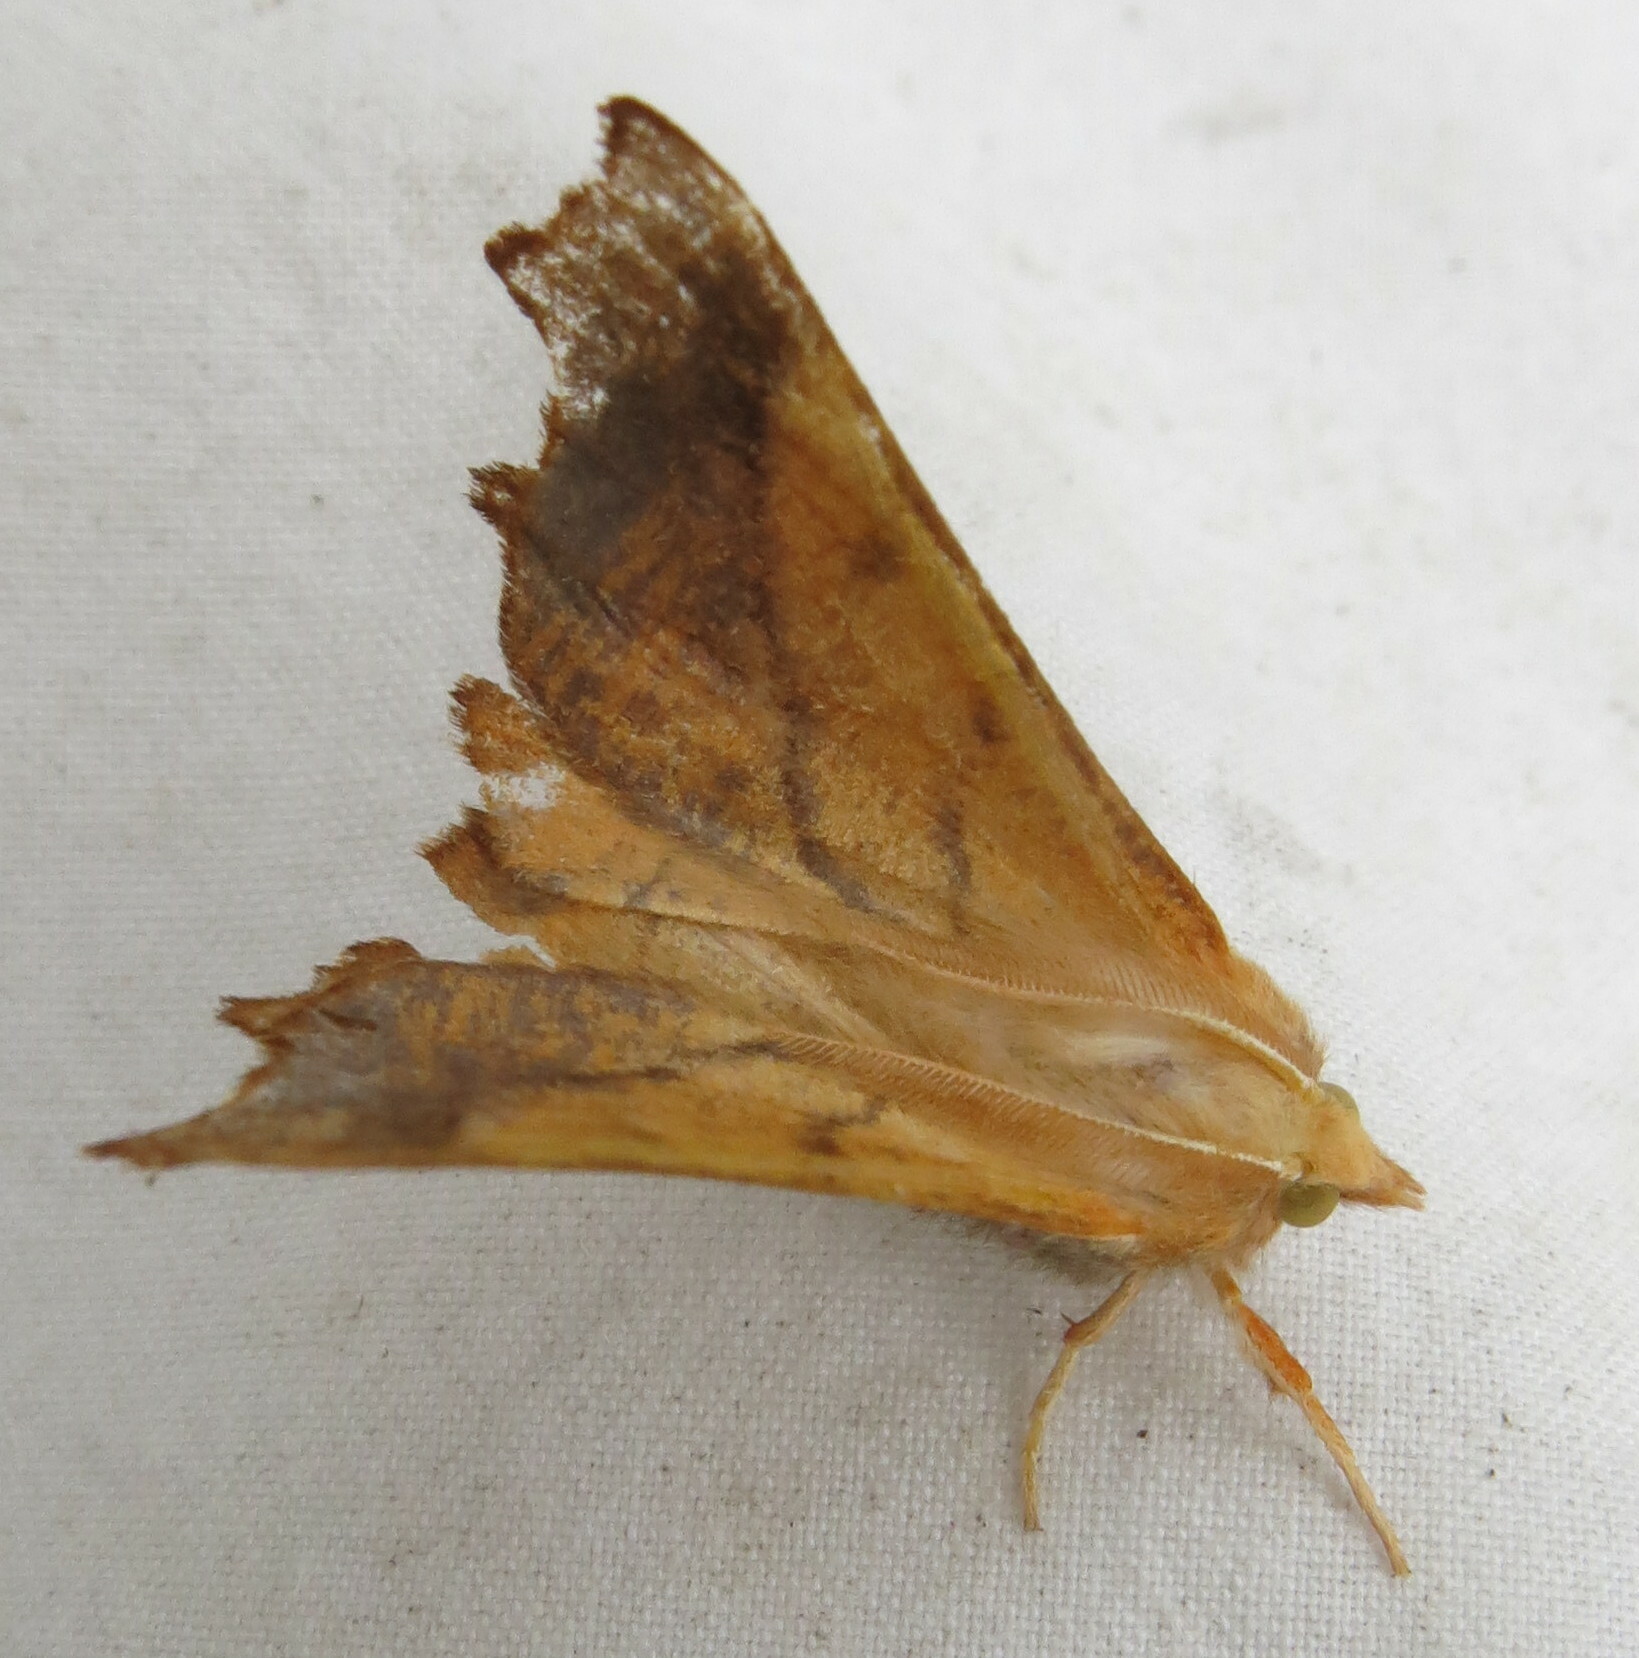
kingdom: Animalia
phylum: Arthropoda
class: Insecta
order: Lepidoptera
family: Geometridae
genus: Ennomos
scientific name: Ennomos fuscantaria
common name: Dusky thorn
